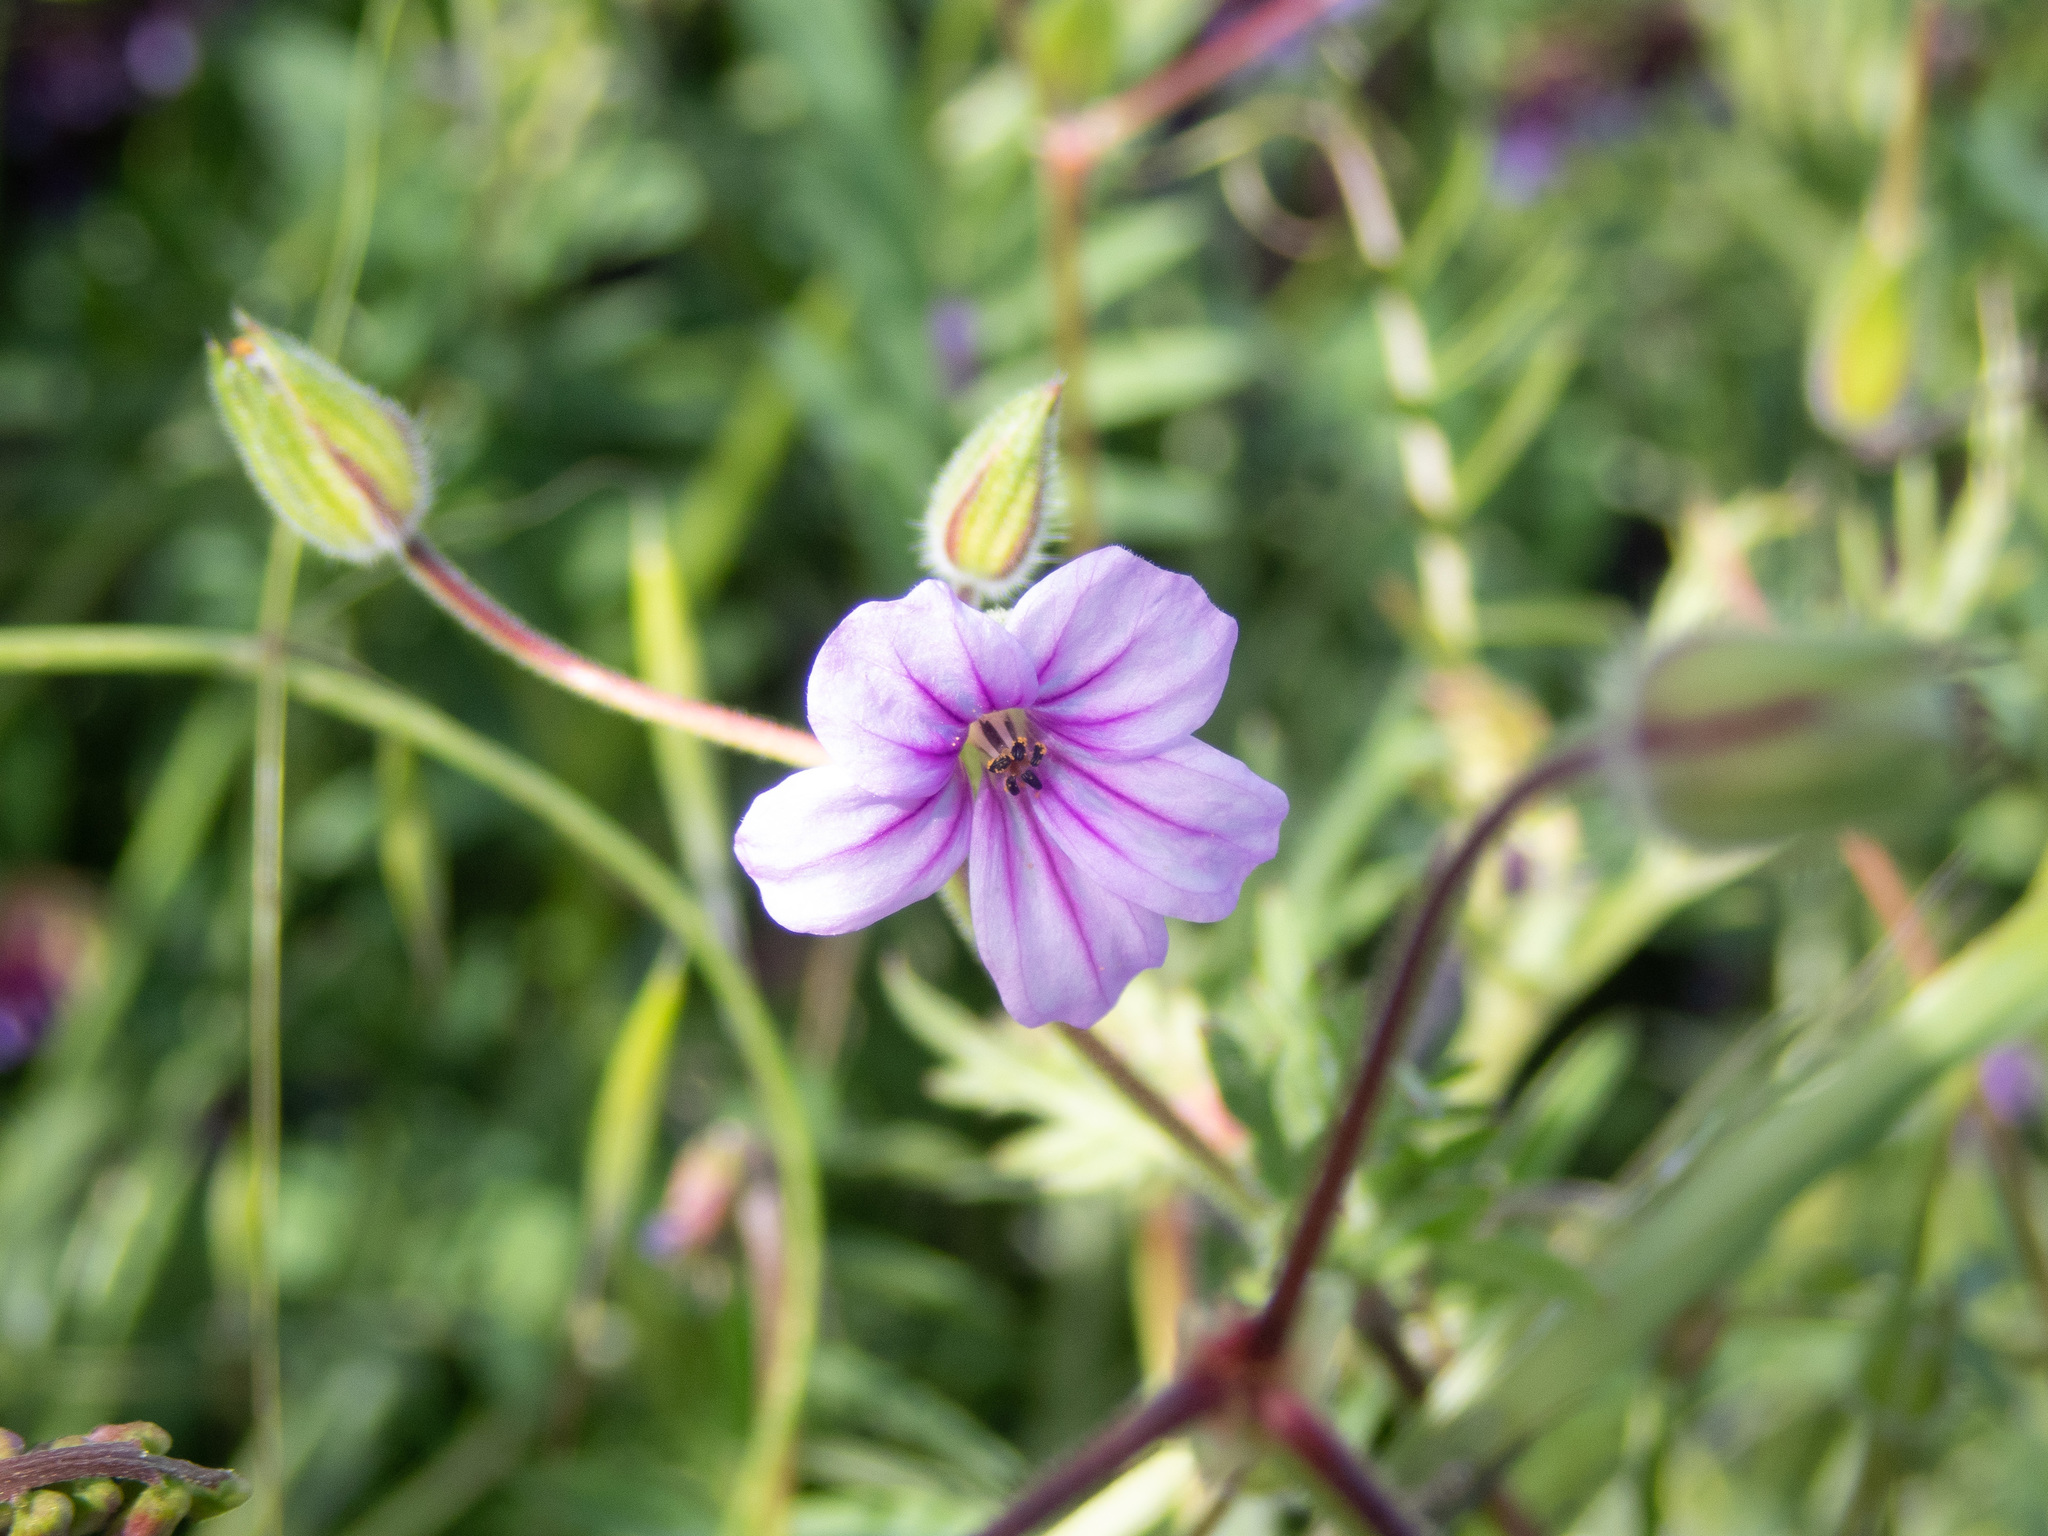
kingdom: Plantae
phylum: Tracheophyta
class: Magnoliopsida
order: Geraniales
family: Geraniaceae
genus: Erodium
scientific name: Erodium botrys
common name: Mediterranean stork's-bill
